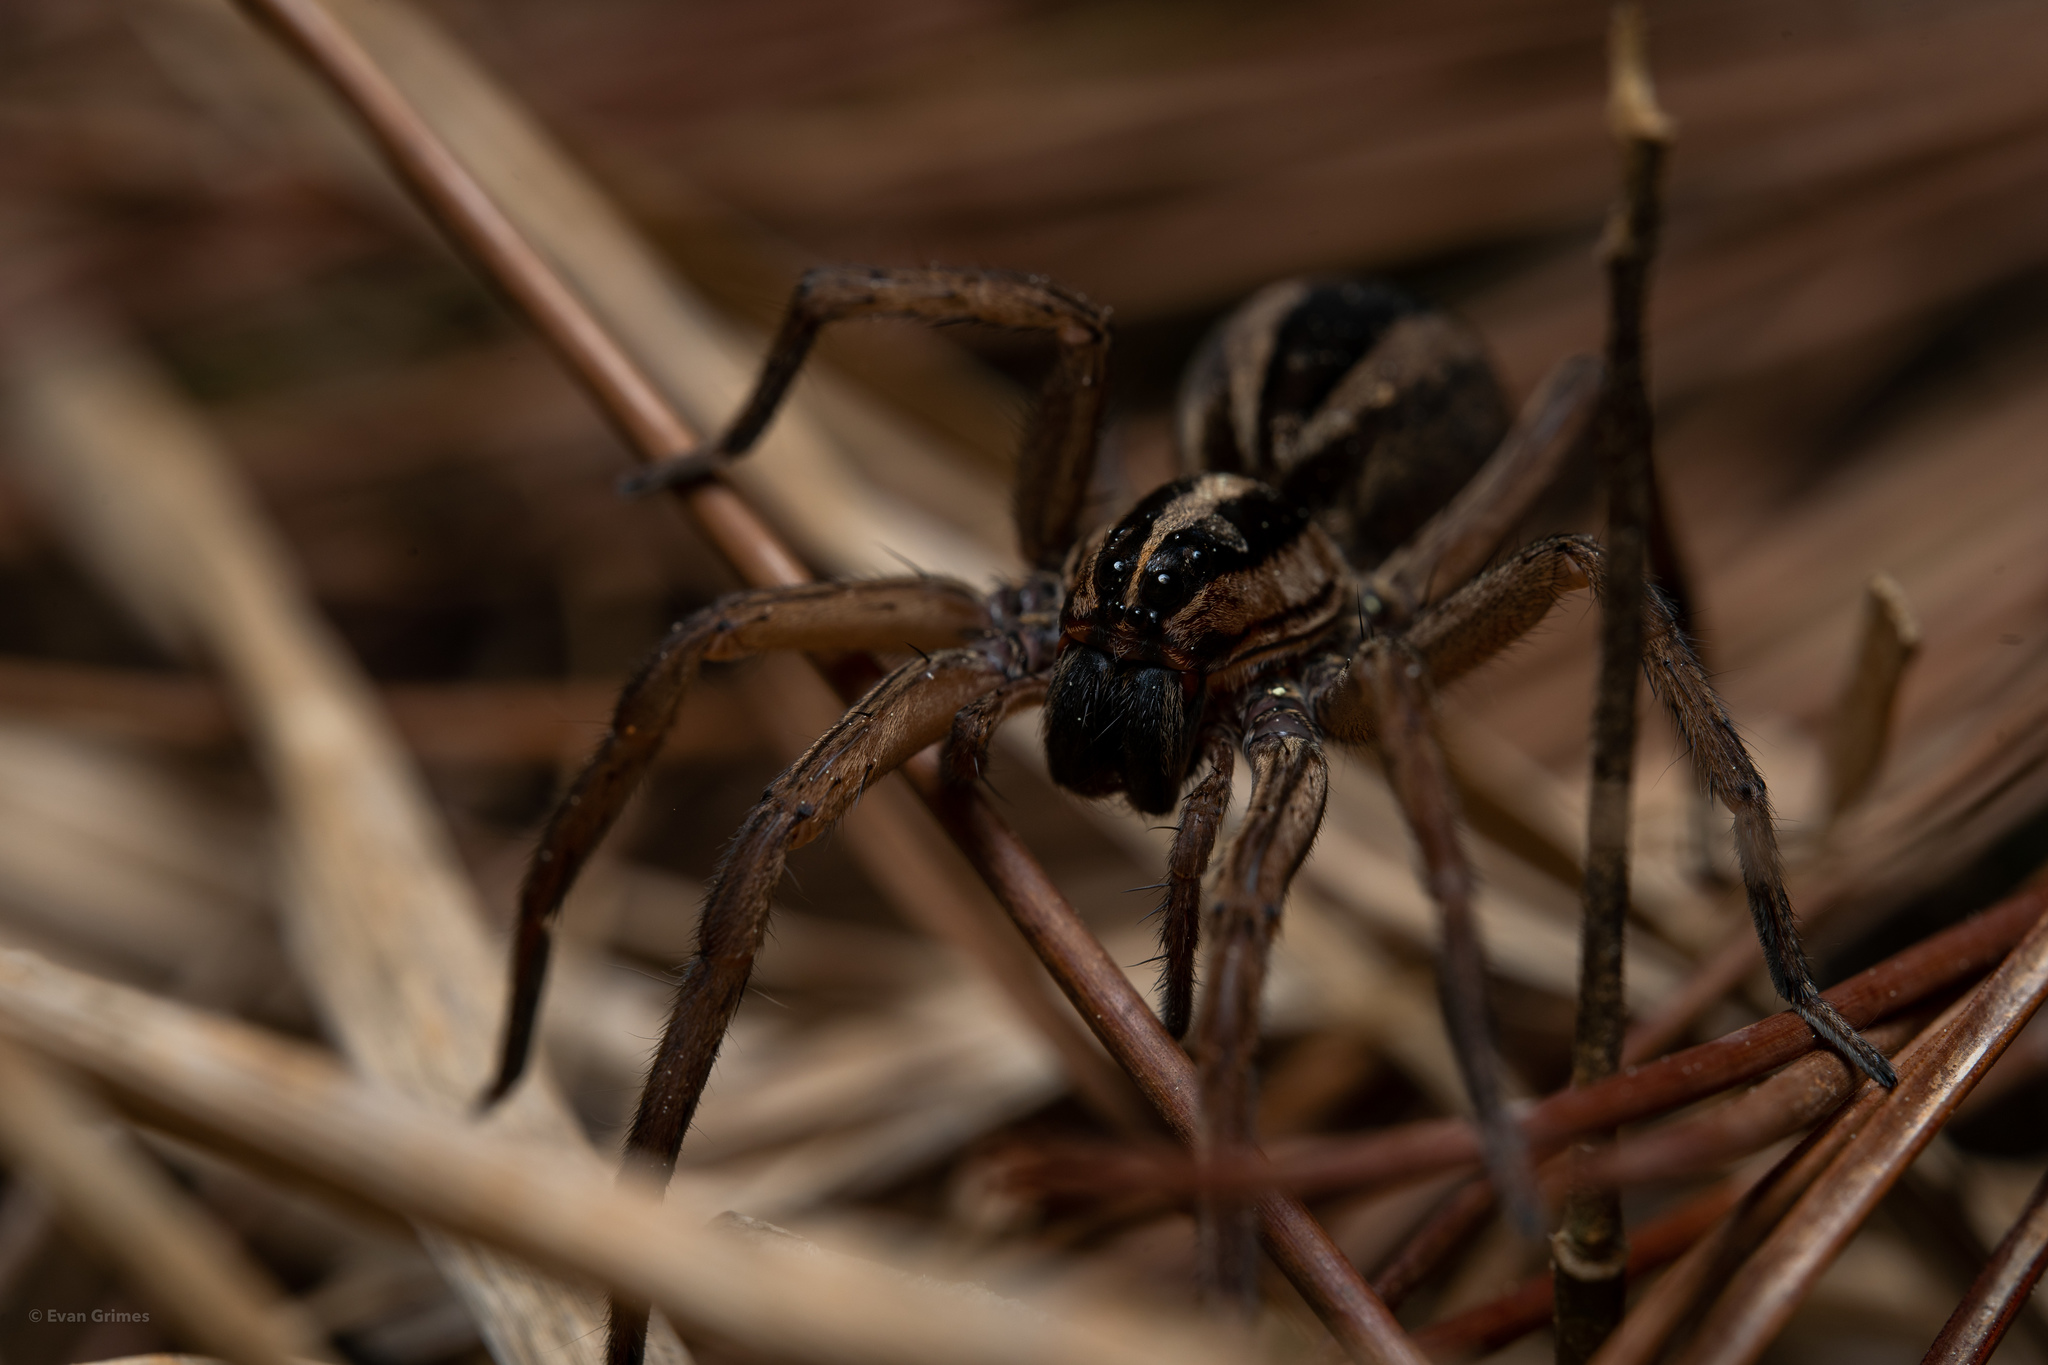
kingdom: Animalia
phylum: Arthropoda
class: Arachnida
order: Araneae
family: Lycosidae
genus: Rabidosa
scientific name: Rabidosa punctulata
